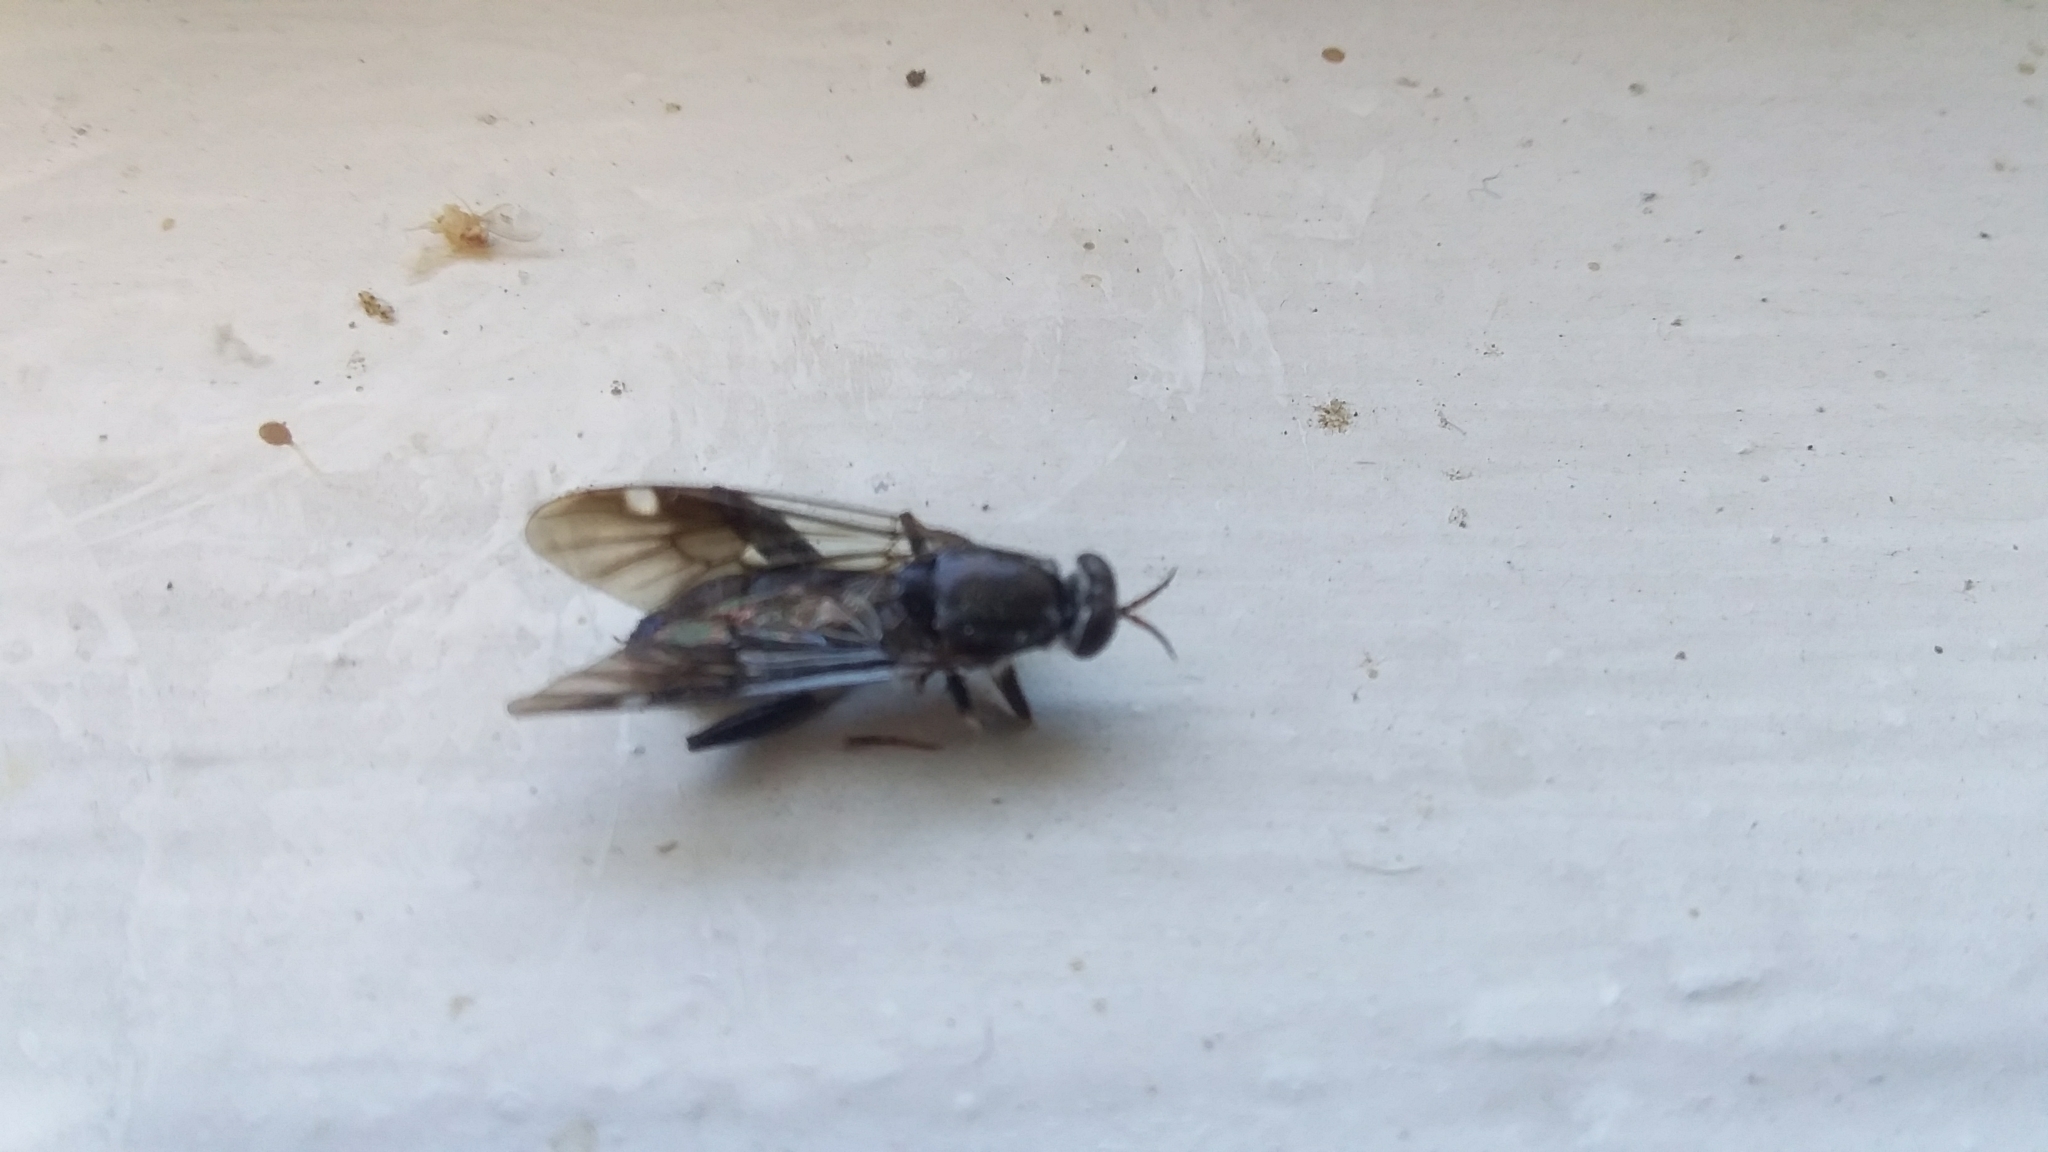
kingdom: Animalia
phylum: Arthropoda
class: Insecta
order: Diptera
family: Stratiomyidae
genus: Exaireta
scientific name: Exaireta spinigera
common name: Blue soldier fly
